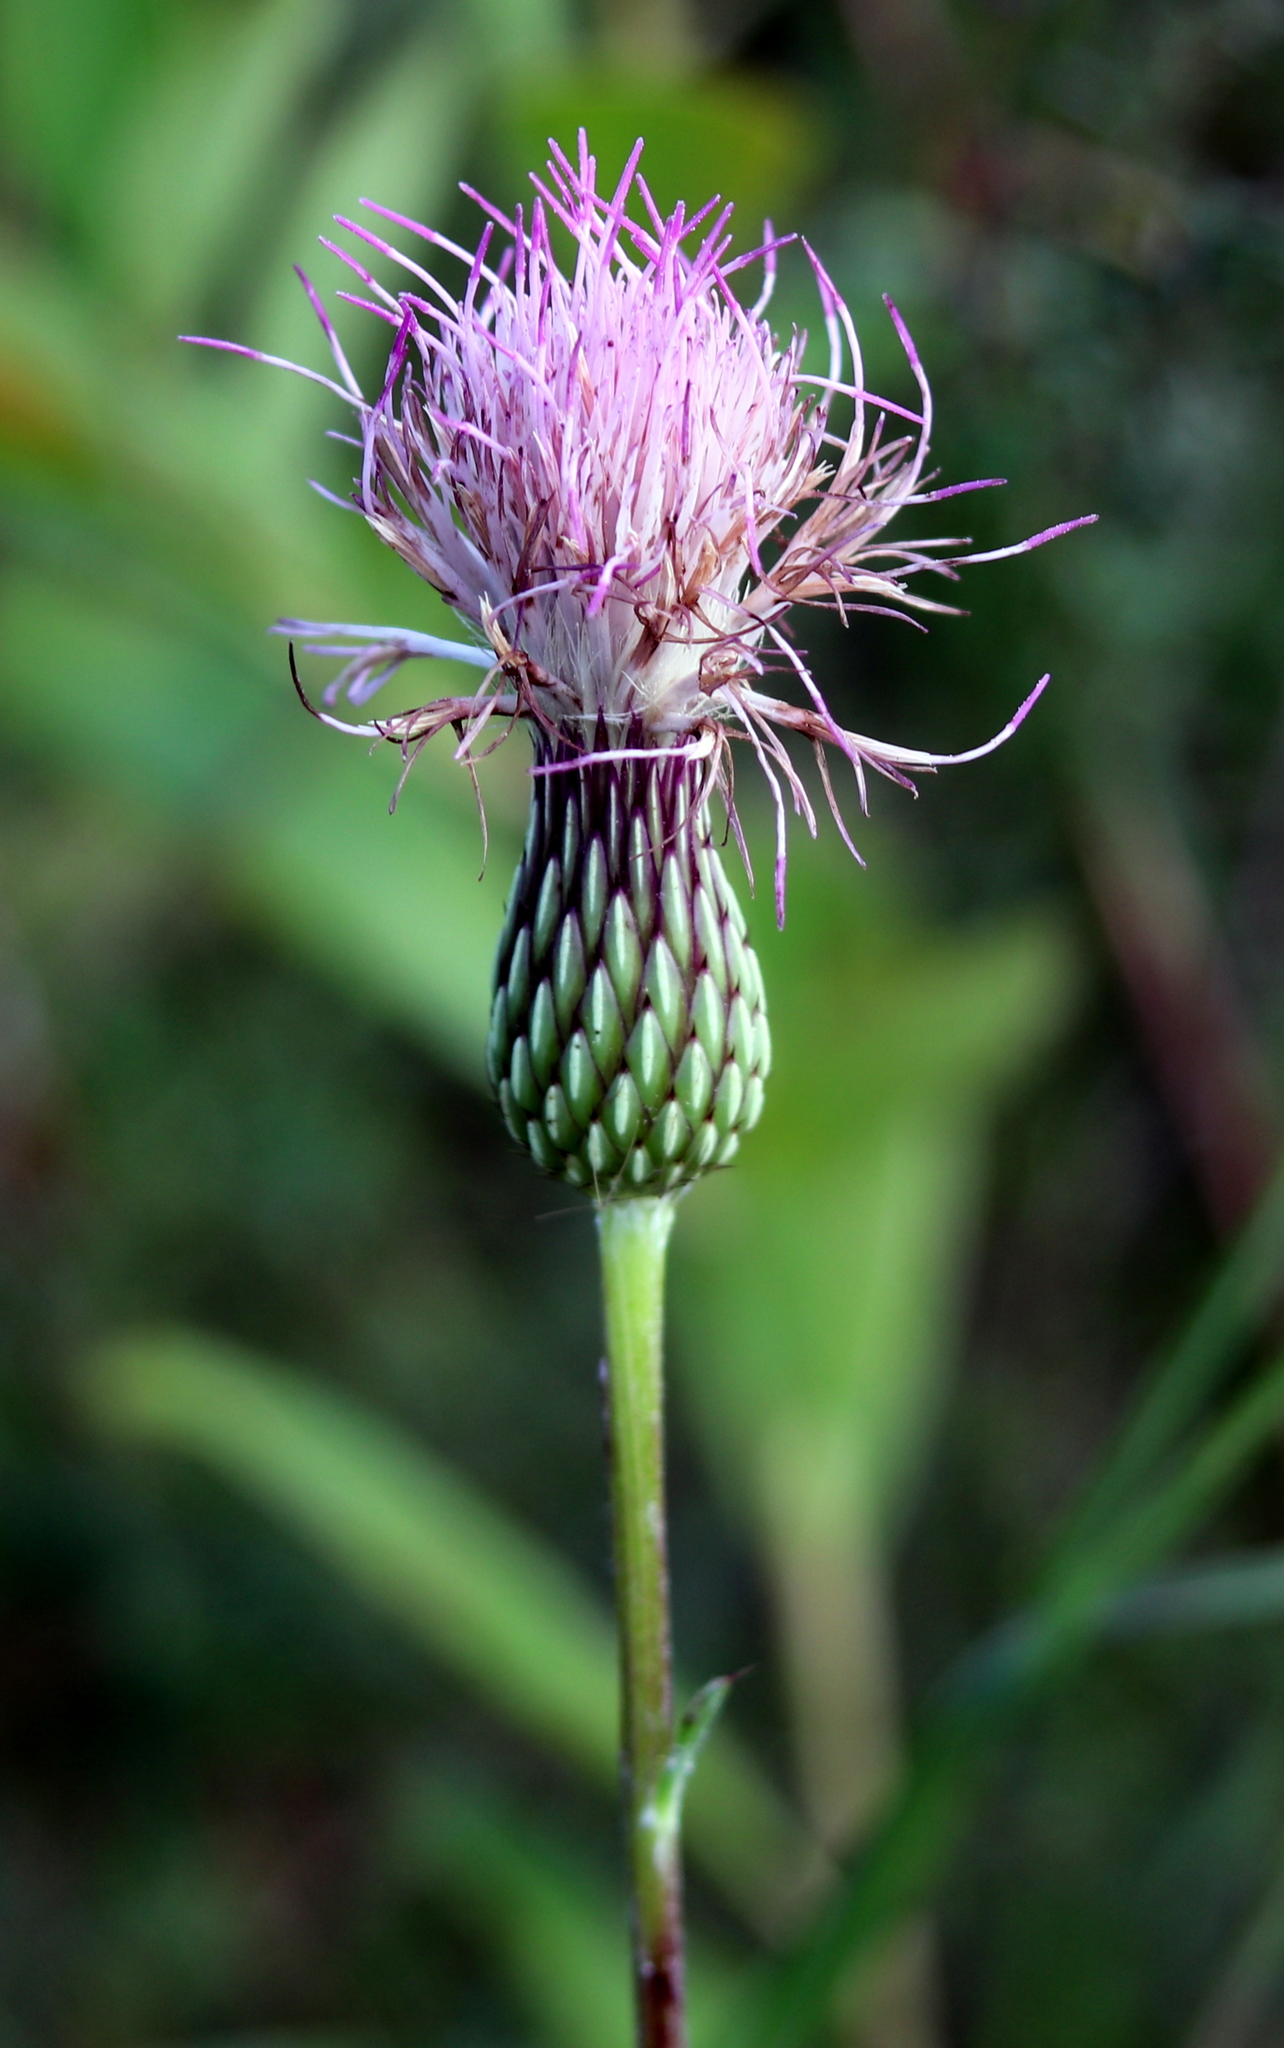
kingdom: Plantae
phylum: Tracheophyta
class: Magnoliopsida
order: Asterales
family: Asteraceae
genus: Cirsium
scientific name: Cirsium lecontei
